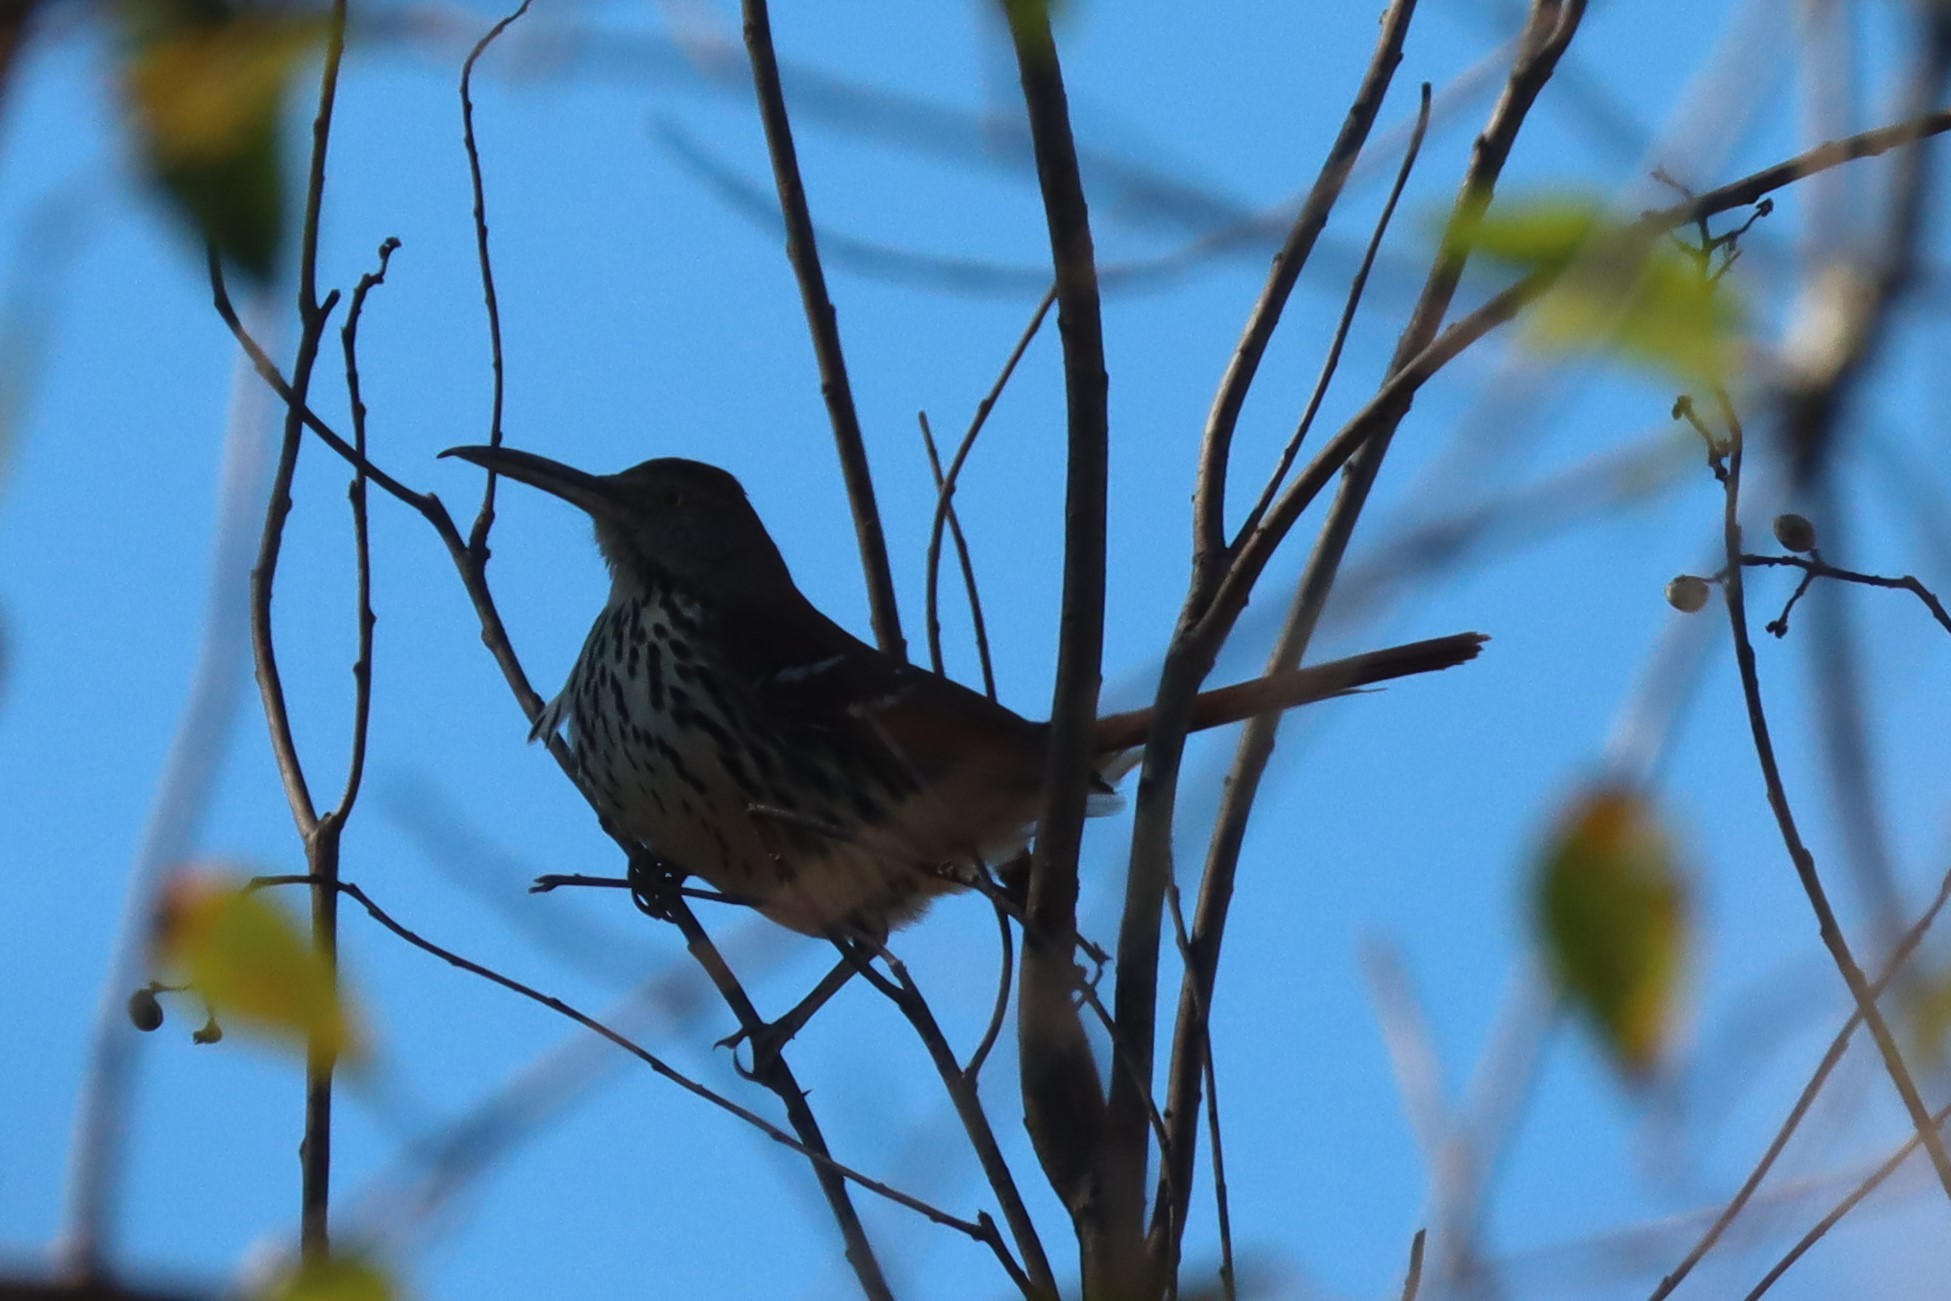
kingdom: Animalia
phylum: Chordata
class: Aves
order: Passeriformes
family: Mimidae
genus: Toxostoma
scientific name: Toxostoma rufum
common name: Brown thrasher
